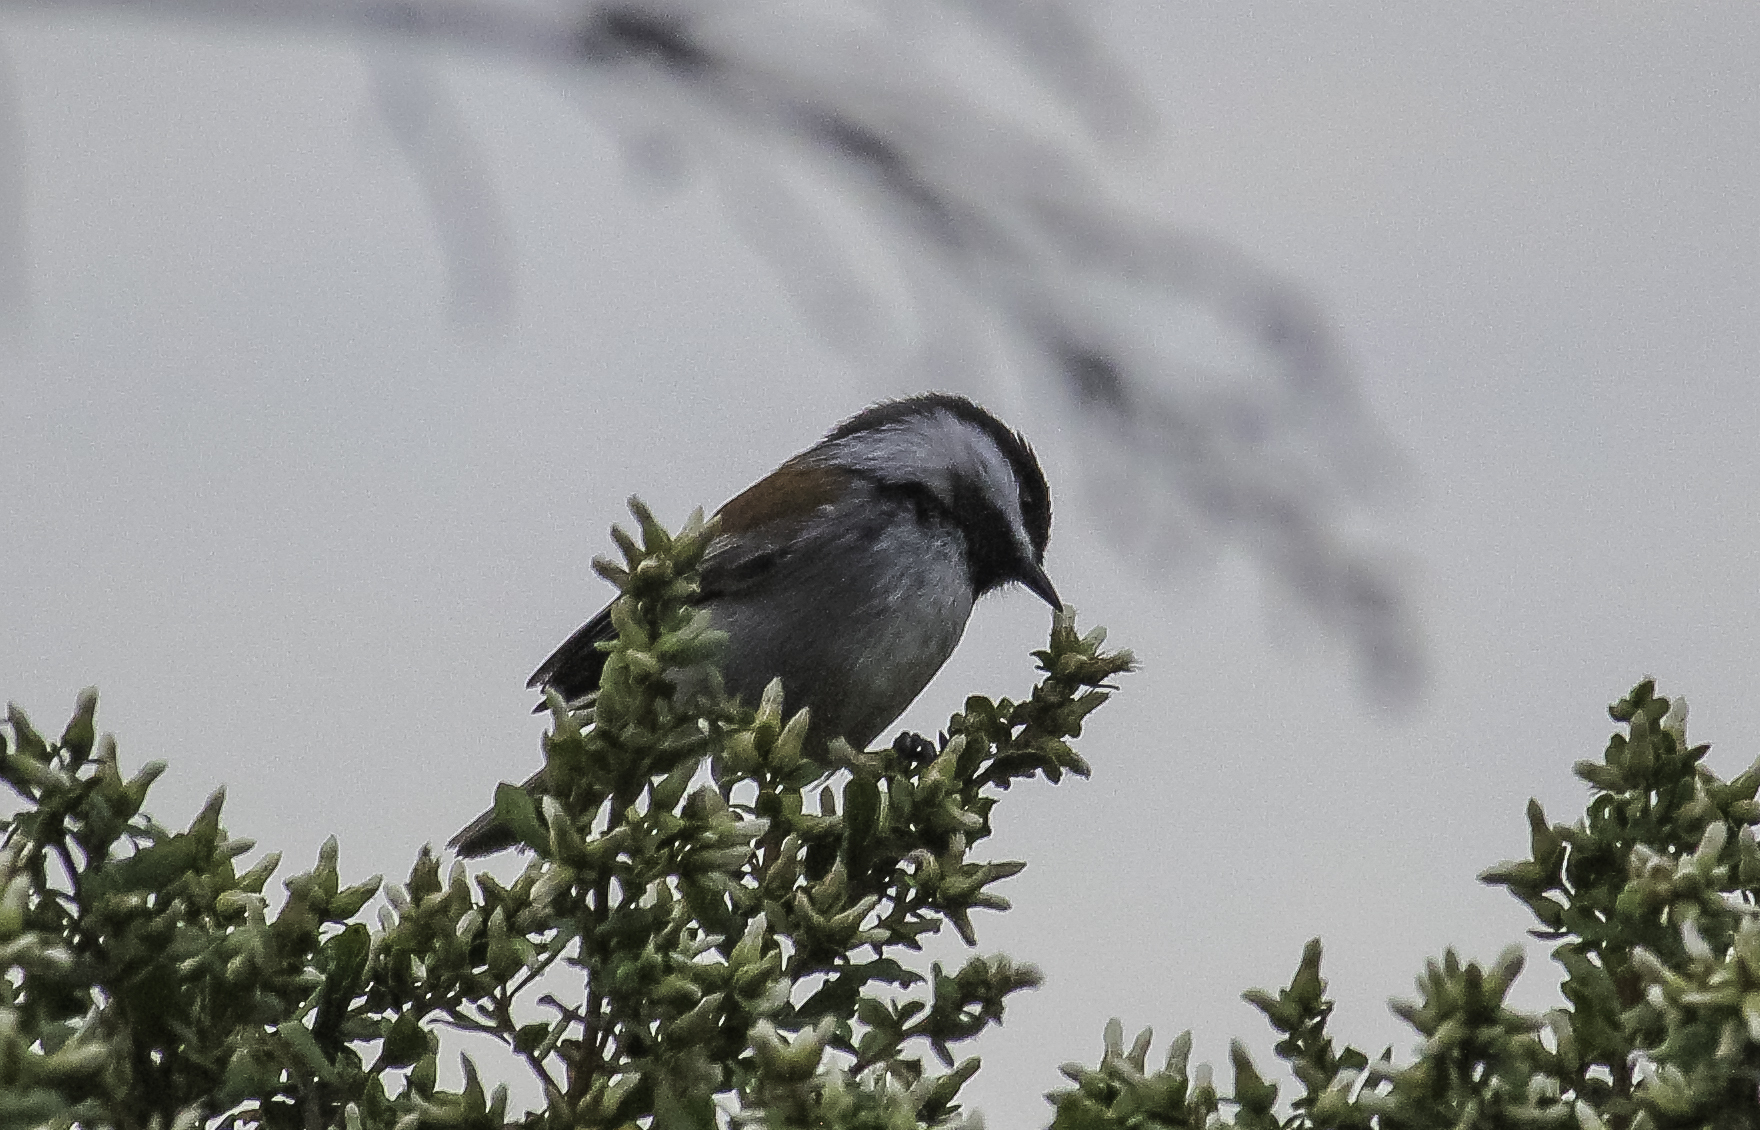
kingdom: Animalia
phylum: Chordata
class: Aves
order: Passeriformes
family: Paridae
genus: Poecile
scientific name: Poecile rufescens
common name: Chestnut-backed chickadee
